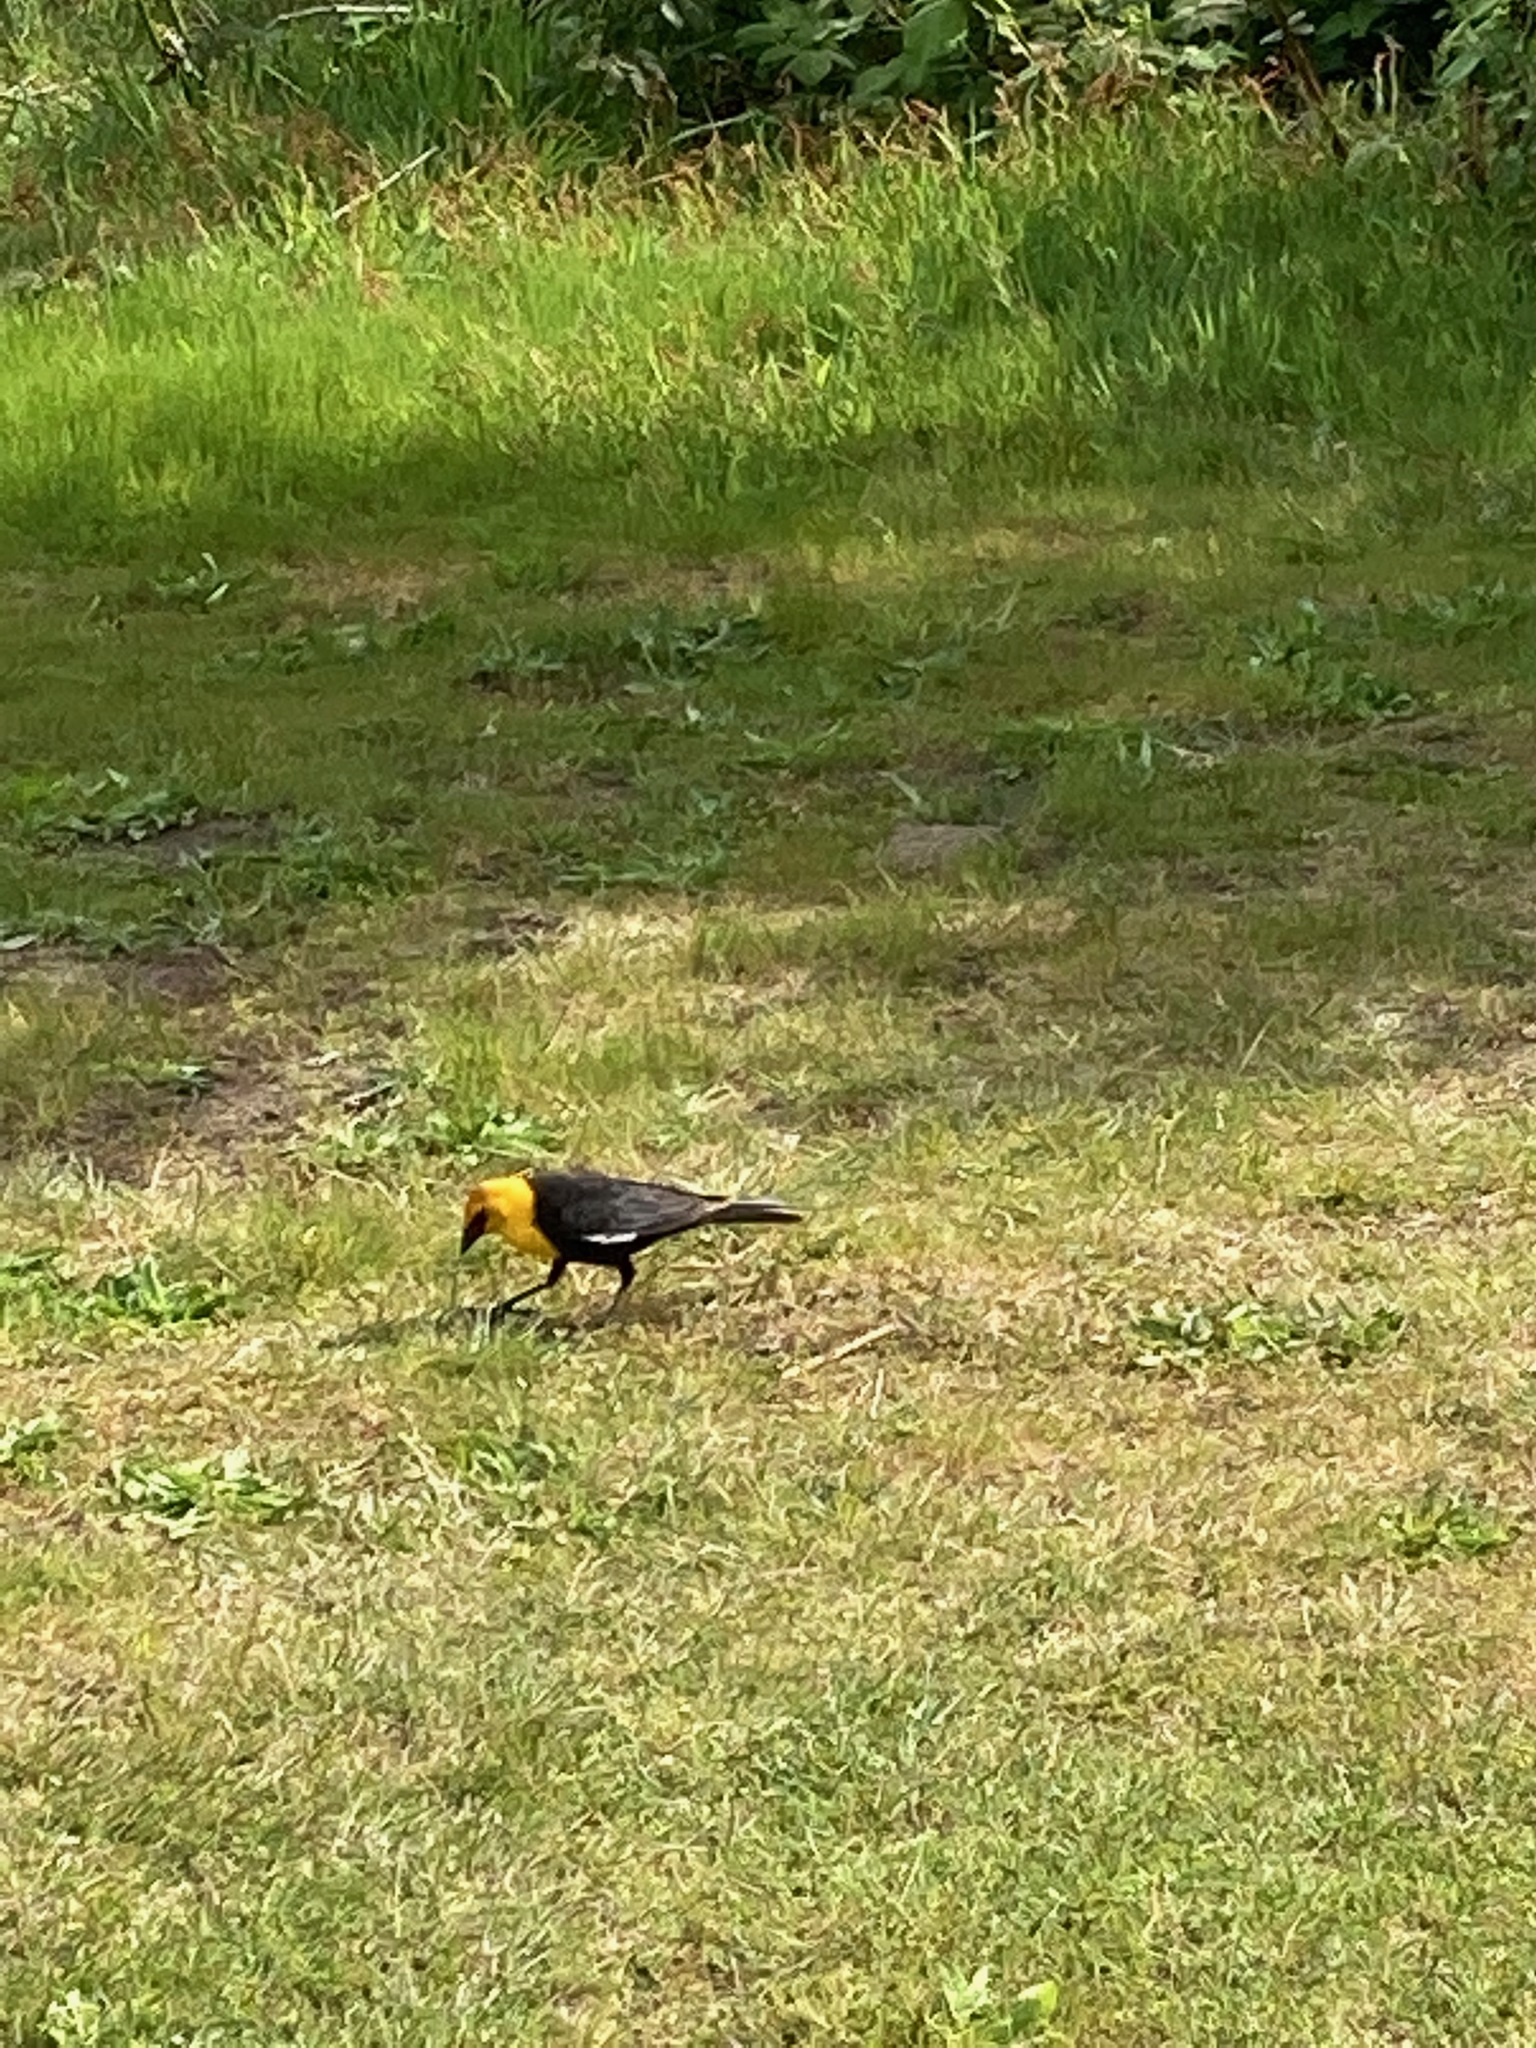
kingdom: Animalia
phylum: Chordata
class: Aves
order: Passeriformes
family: Icteridae
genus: Xanthocephalus
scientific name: Xanthocephalus xanthocephalus
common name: Yellow-headed blackbird
